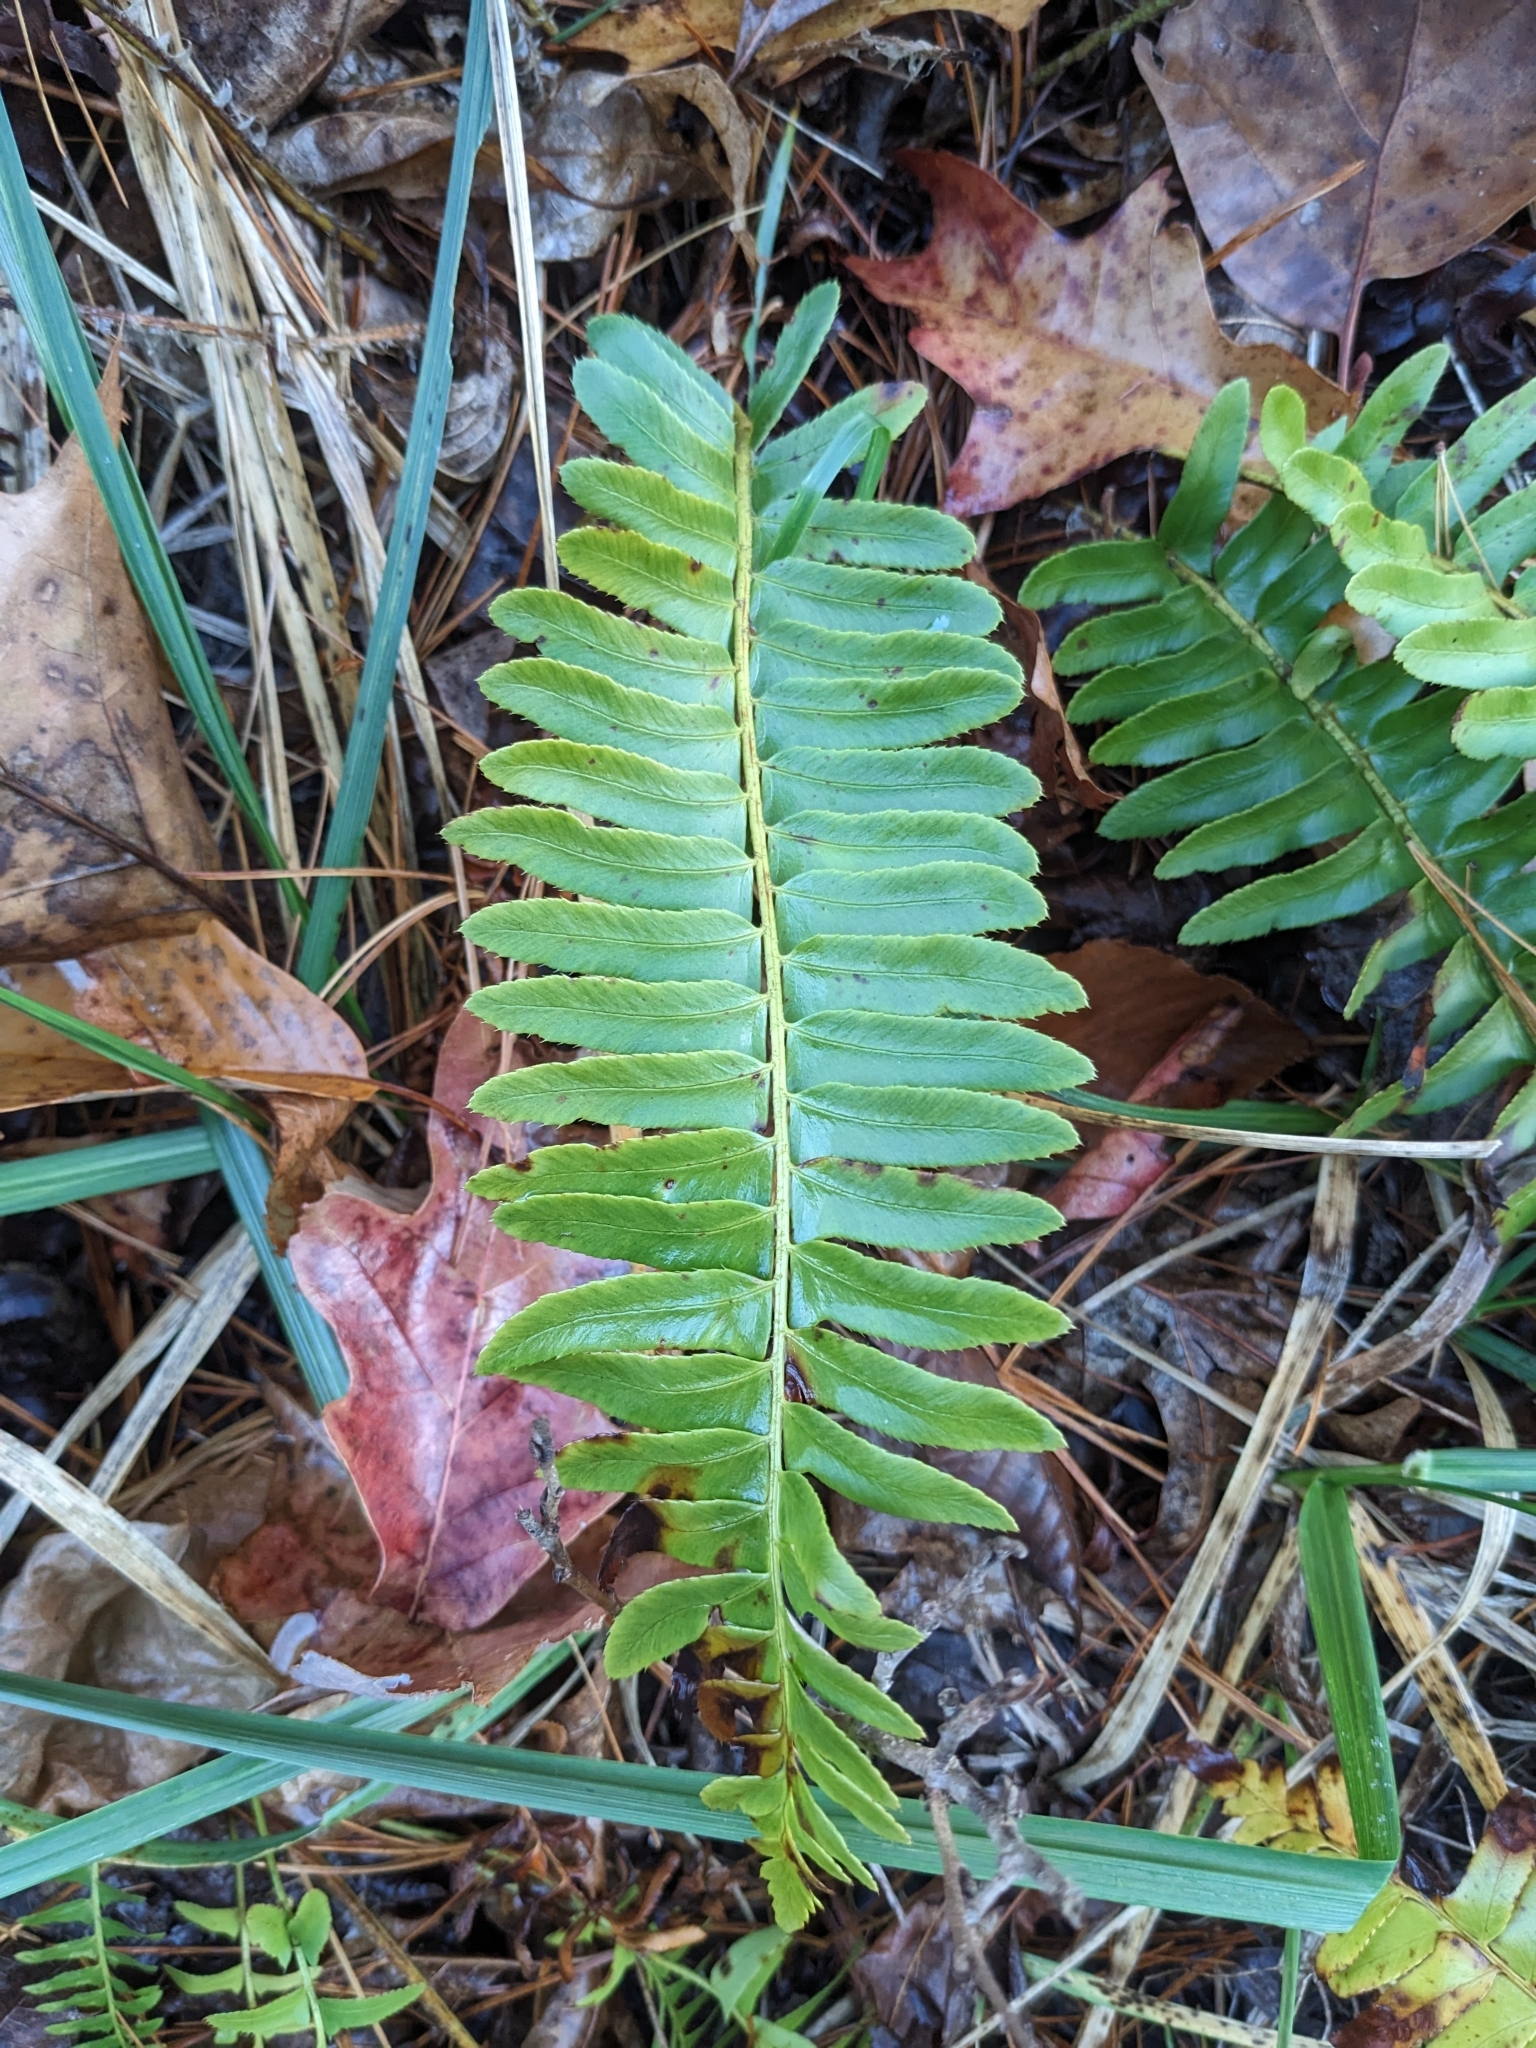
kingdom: Plantae
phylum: Tracheophyta
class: Polypodiopsida
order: Polypodiales
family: Dryopteridaceae
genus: Polystichum
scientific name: Polystichum acrostichoides
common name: Christmas fern
